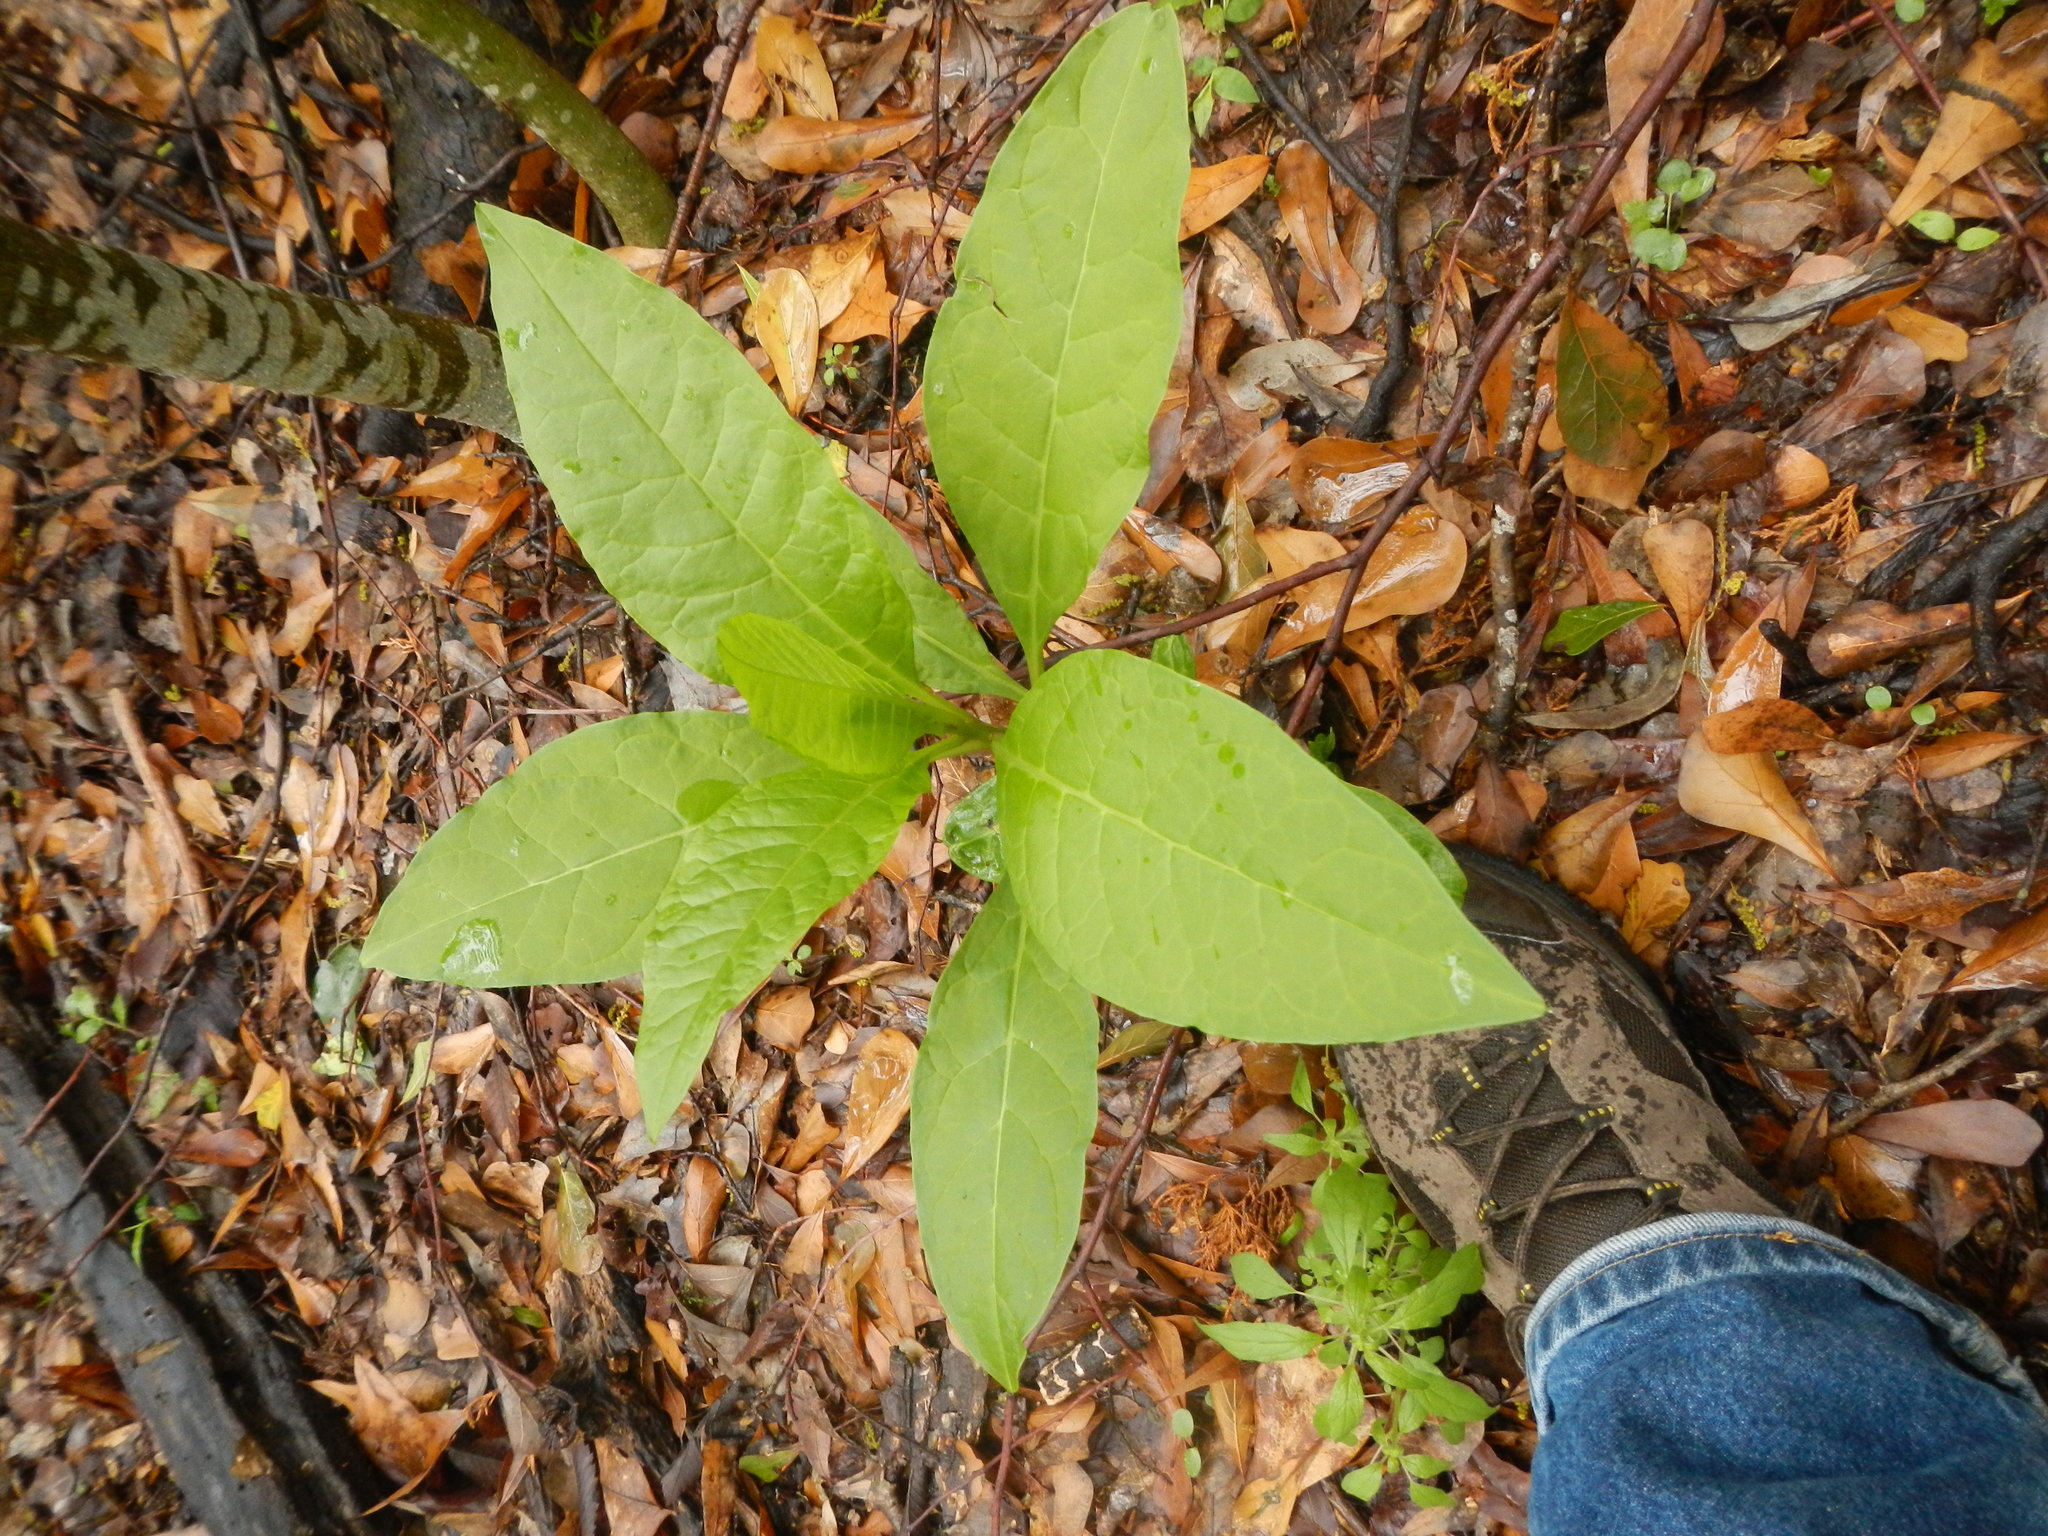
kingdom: Plantae
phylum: Tracheophyta
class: Magnoliopsida
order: Caryophyllales
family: Phytolaccaceae
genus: Phytolacca
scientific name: Phytolacca americana
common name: American pokeweed
